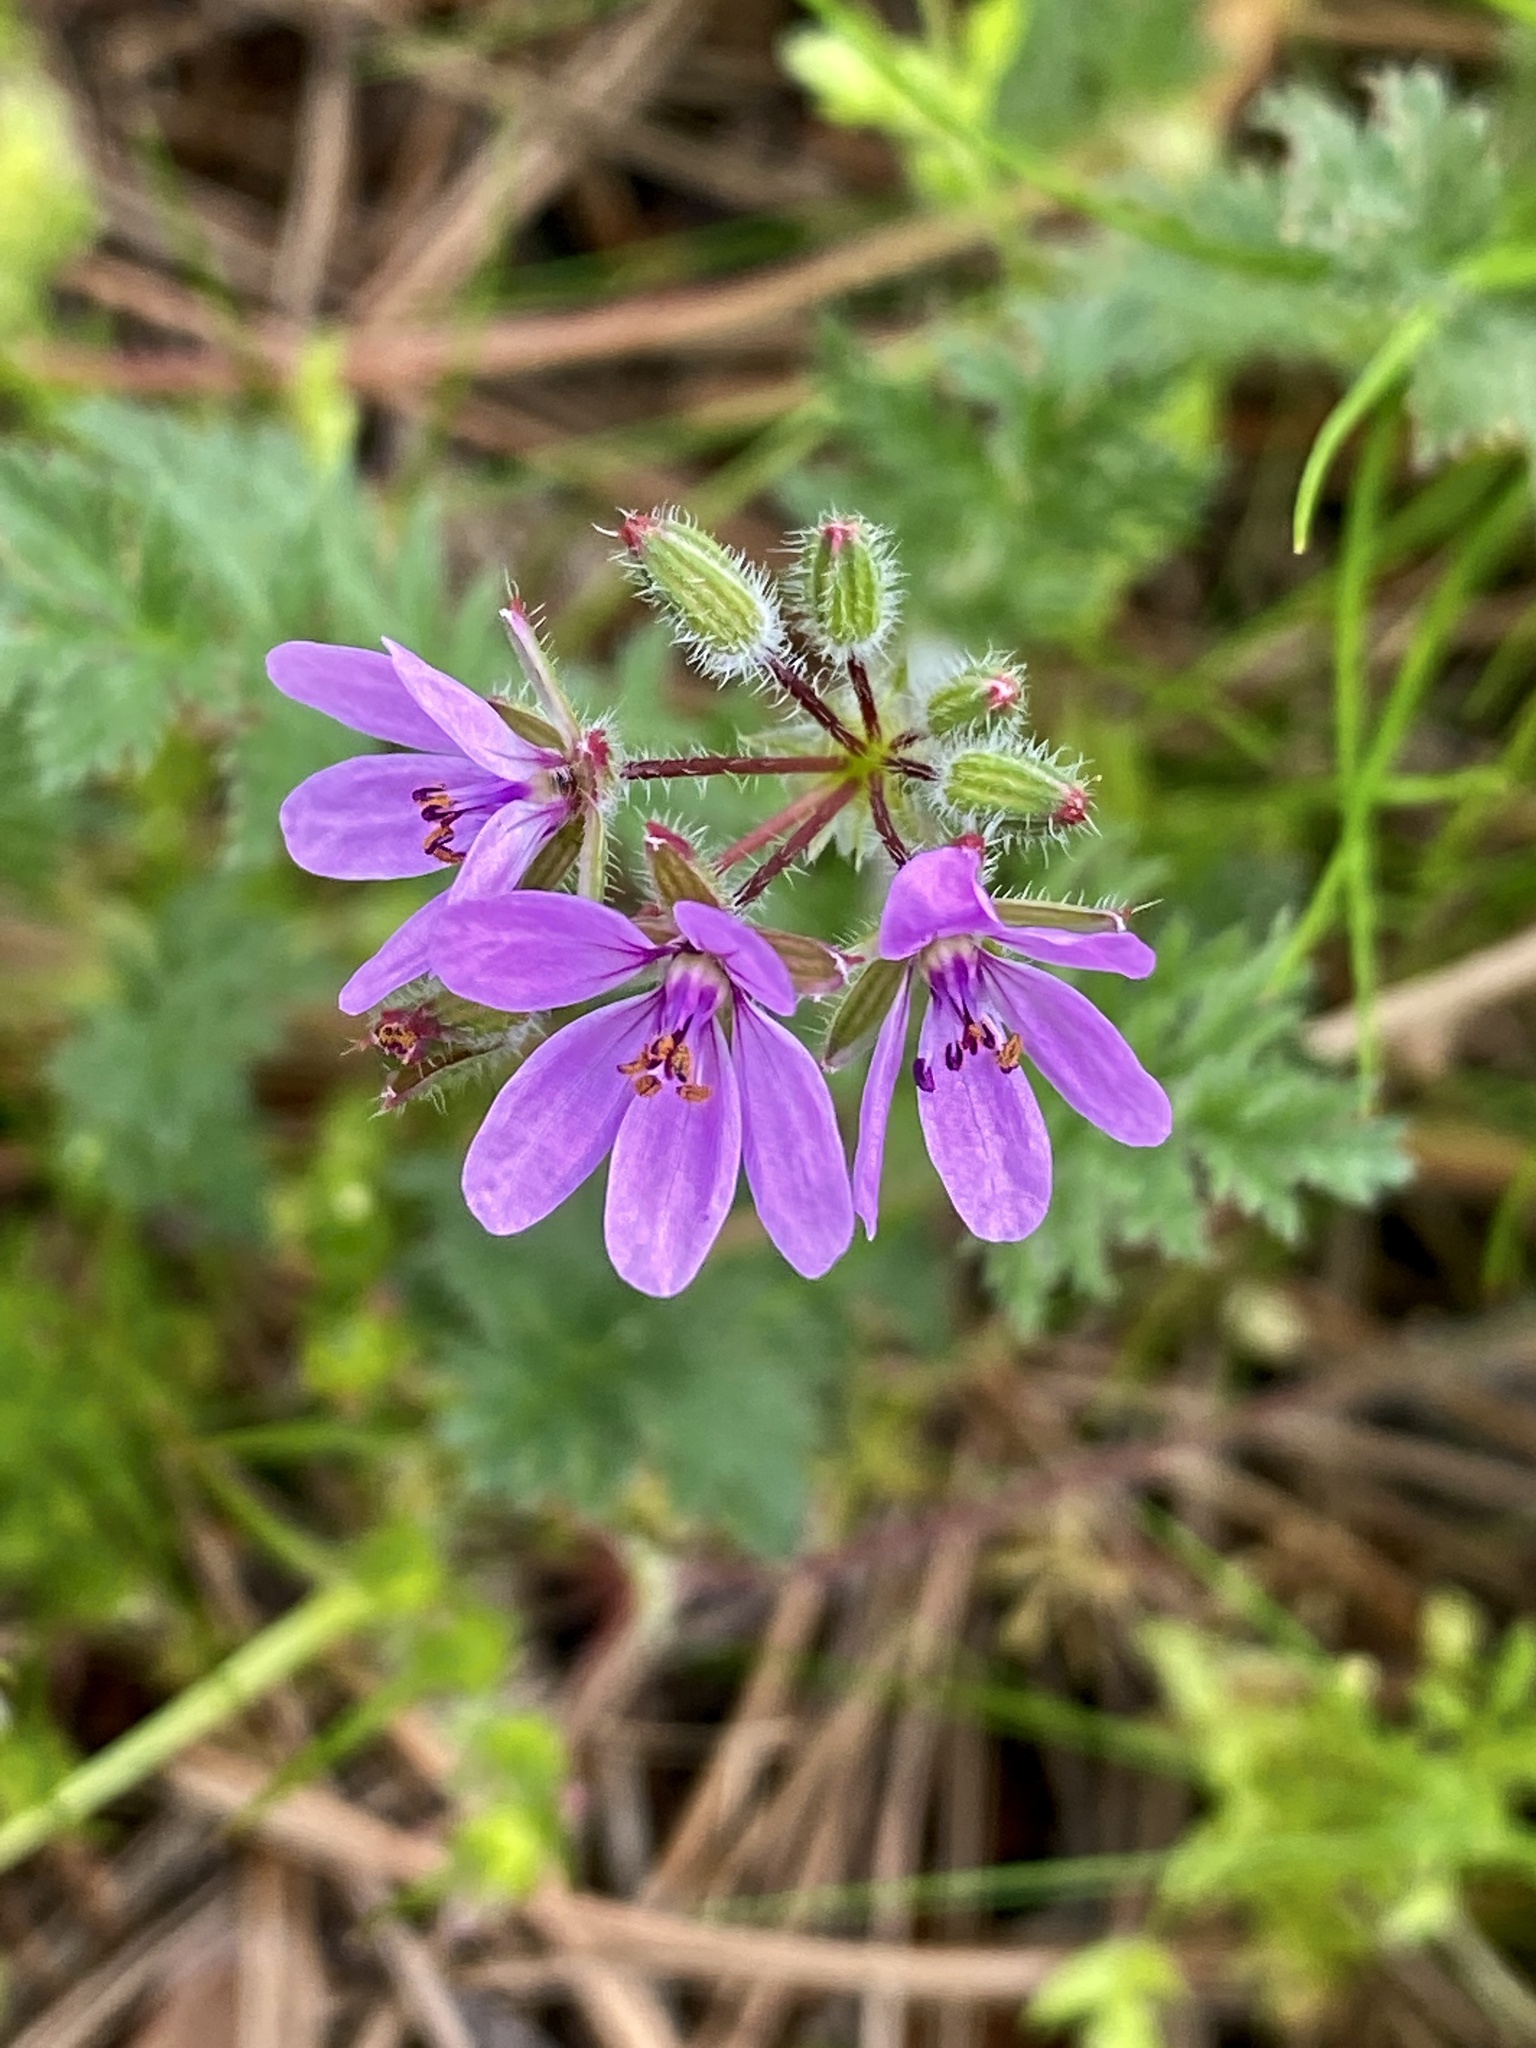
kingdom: Plantae
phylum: Tracheophyta
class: Magnoliopsida
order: Geraniales
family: Geraniaceae
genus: Erodium
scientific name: Erodium cicutarium
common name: Common stork's-bill
